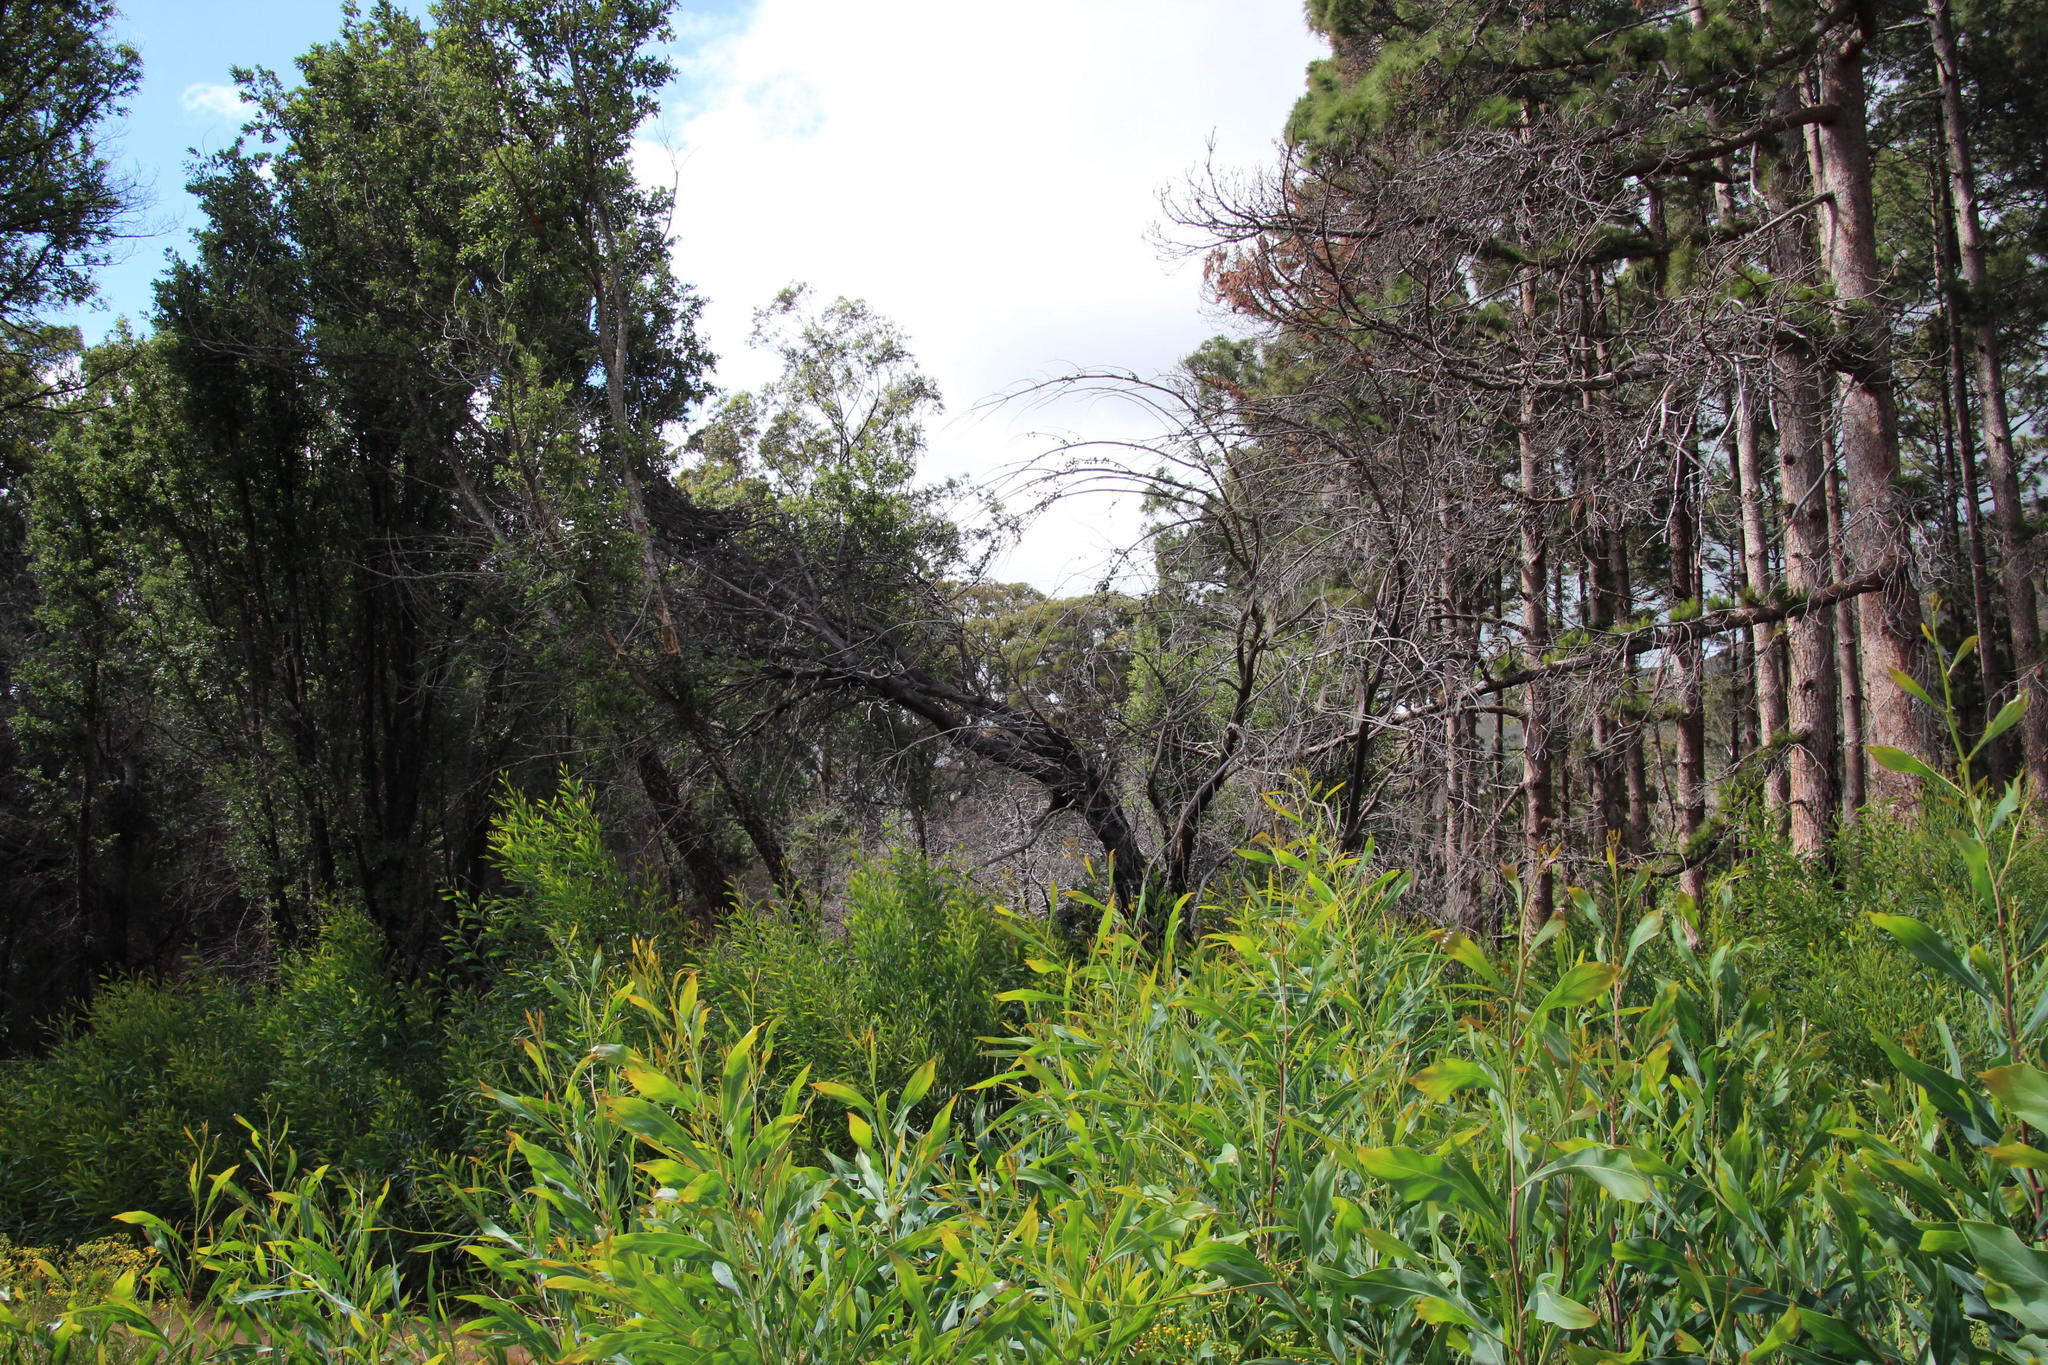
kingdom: Plantae
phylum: Tracheophyta
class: Magnoliopsida
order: Fabales
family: Fabaceae
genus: Acacia
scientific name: Acacia saligna
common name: Orange wattle
